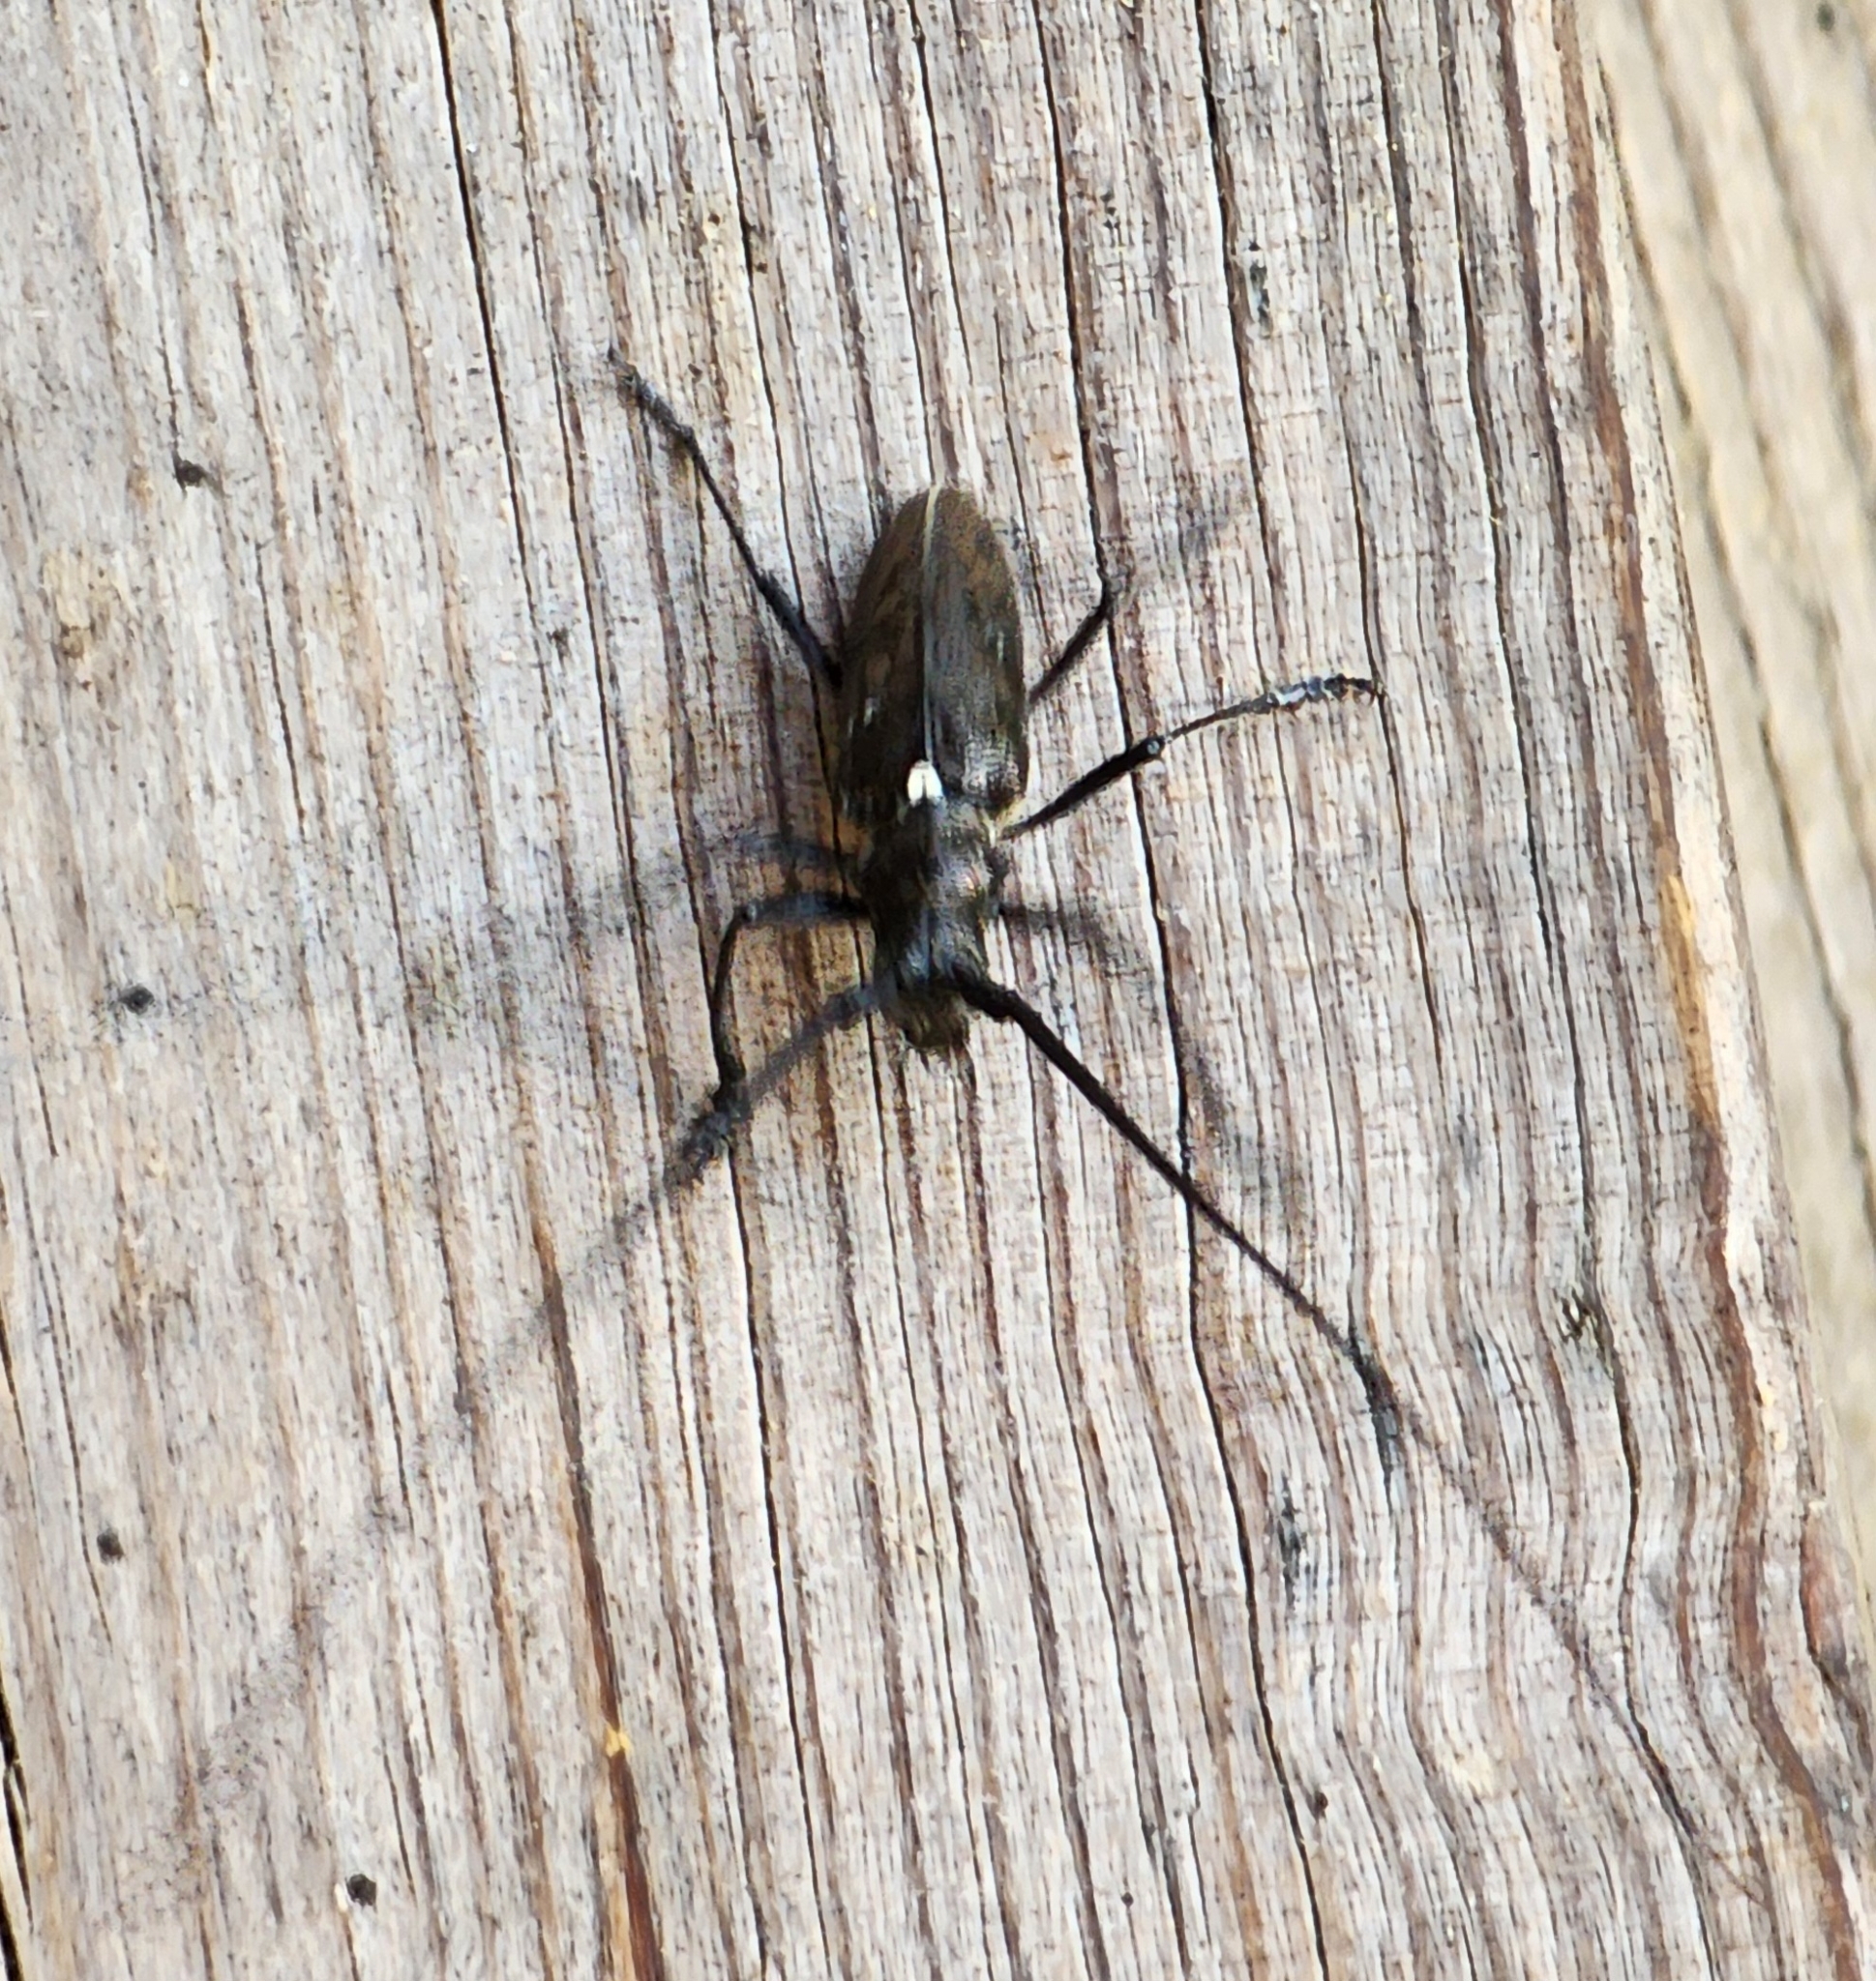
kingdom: Animalia
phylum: Arthropoda
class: Insecta
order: Coleoptera
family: Cerambycidae
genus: Monochamus
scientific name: Monochamus scutellatus
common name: White-spotted sawyer beetle
